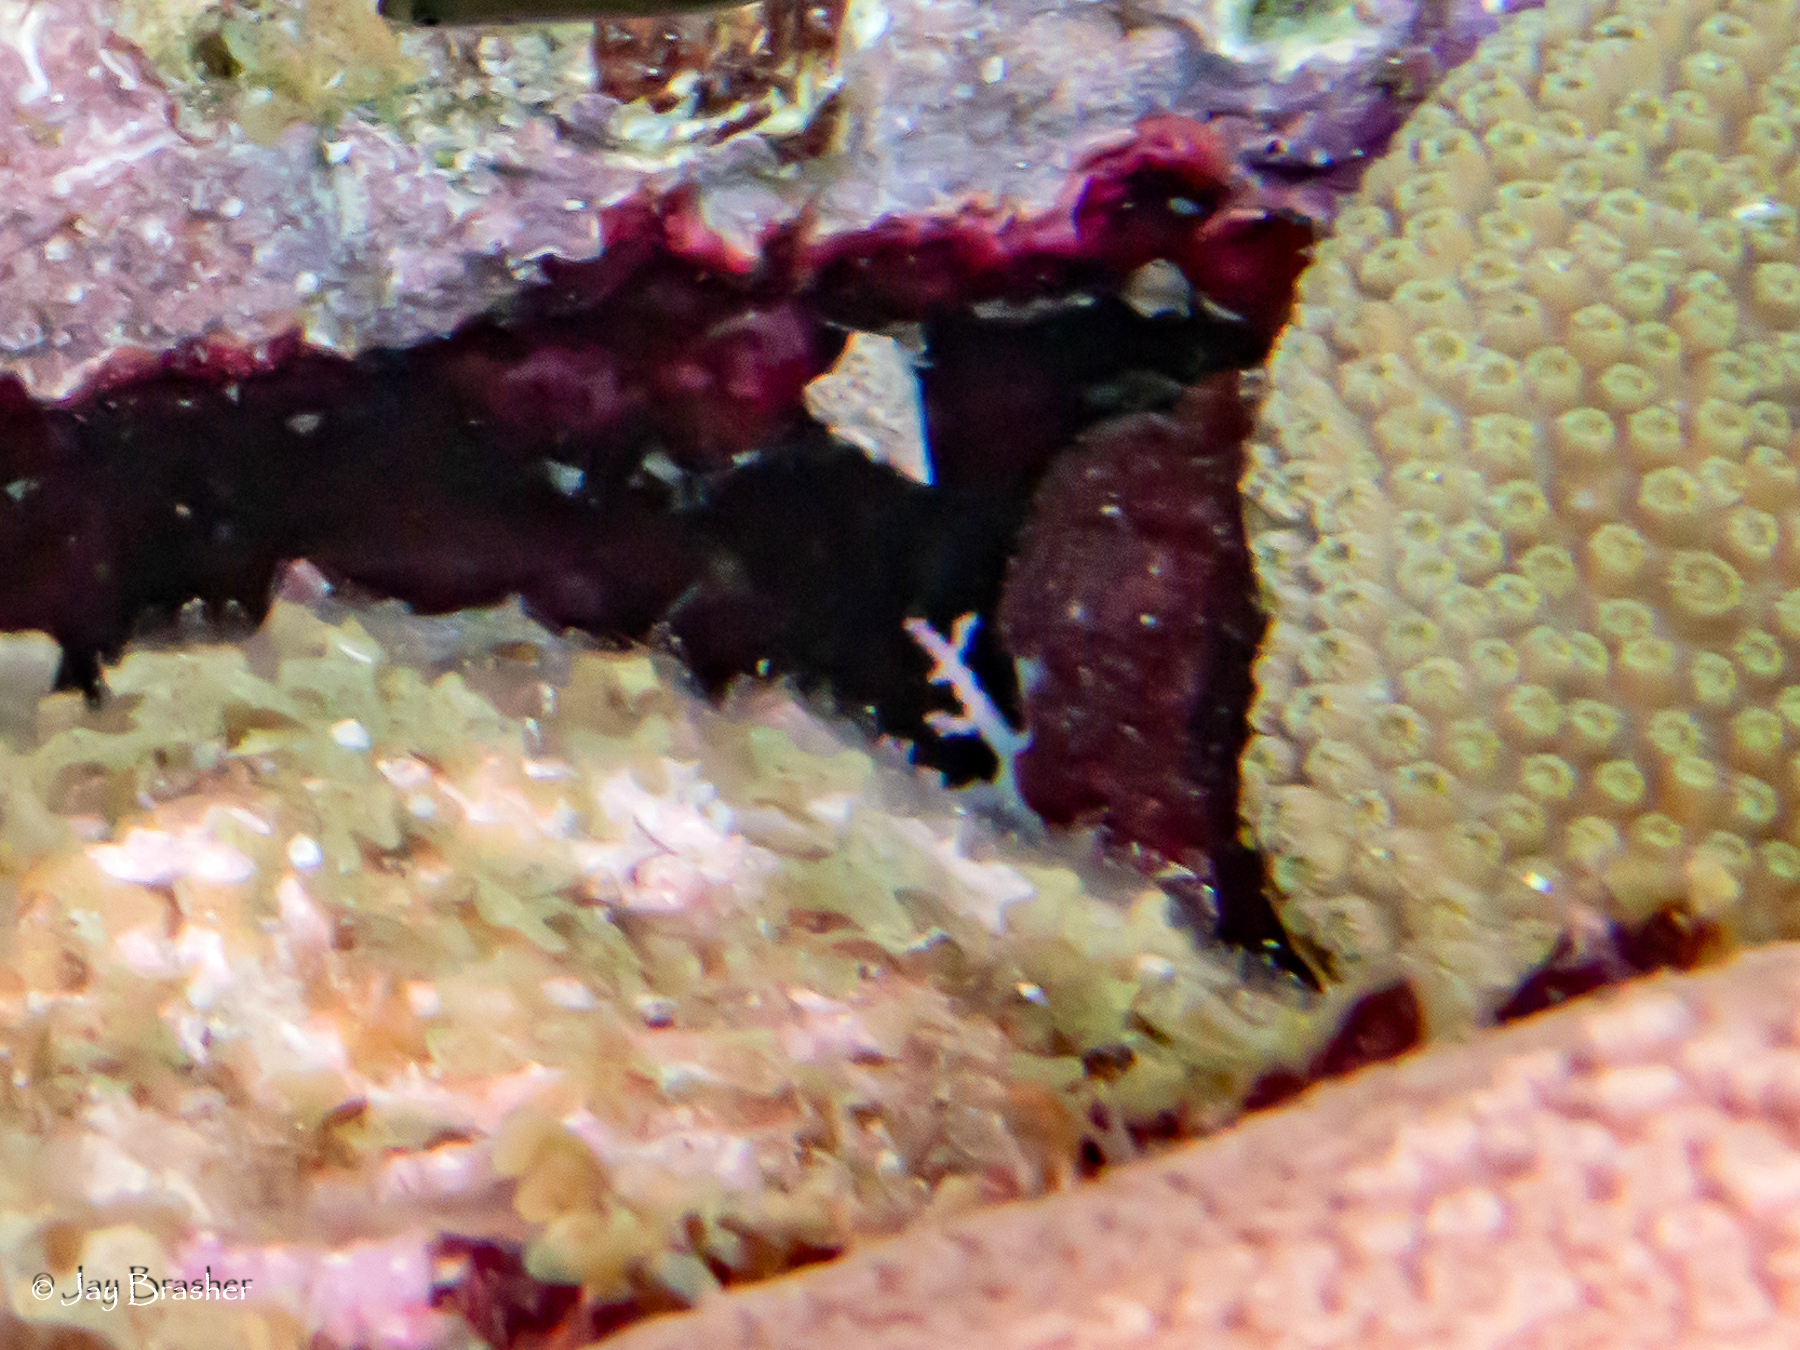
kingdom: Animalia
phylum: Cnidaria
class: Hydrozoa
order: Anthoathecata
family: Stylasteridae
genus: Stylaster
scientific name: Stylaster roseus
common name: Rose lace coral
